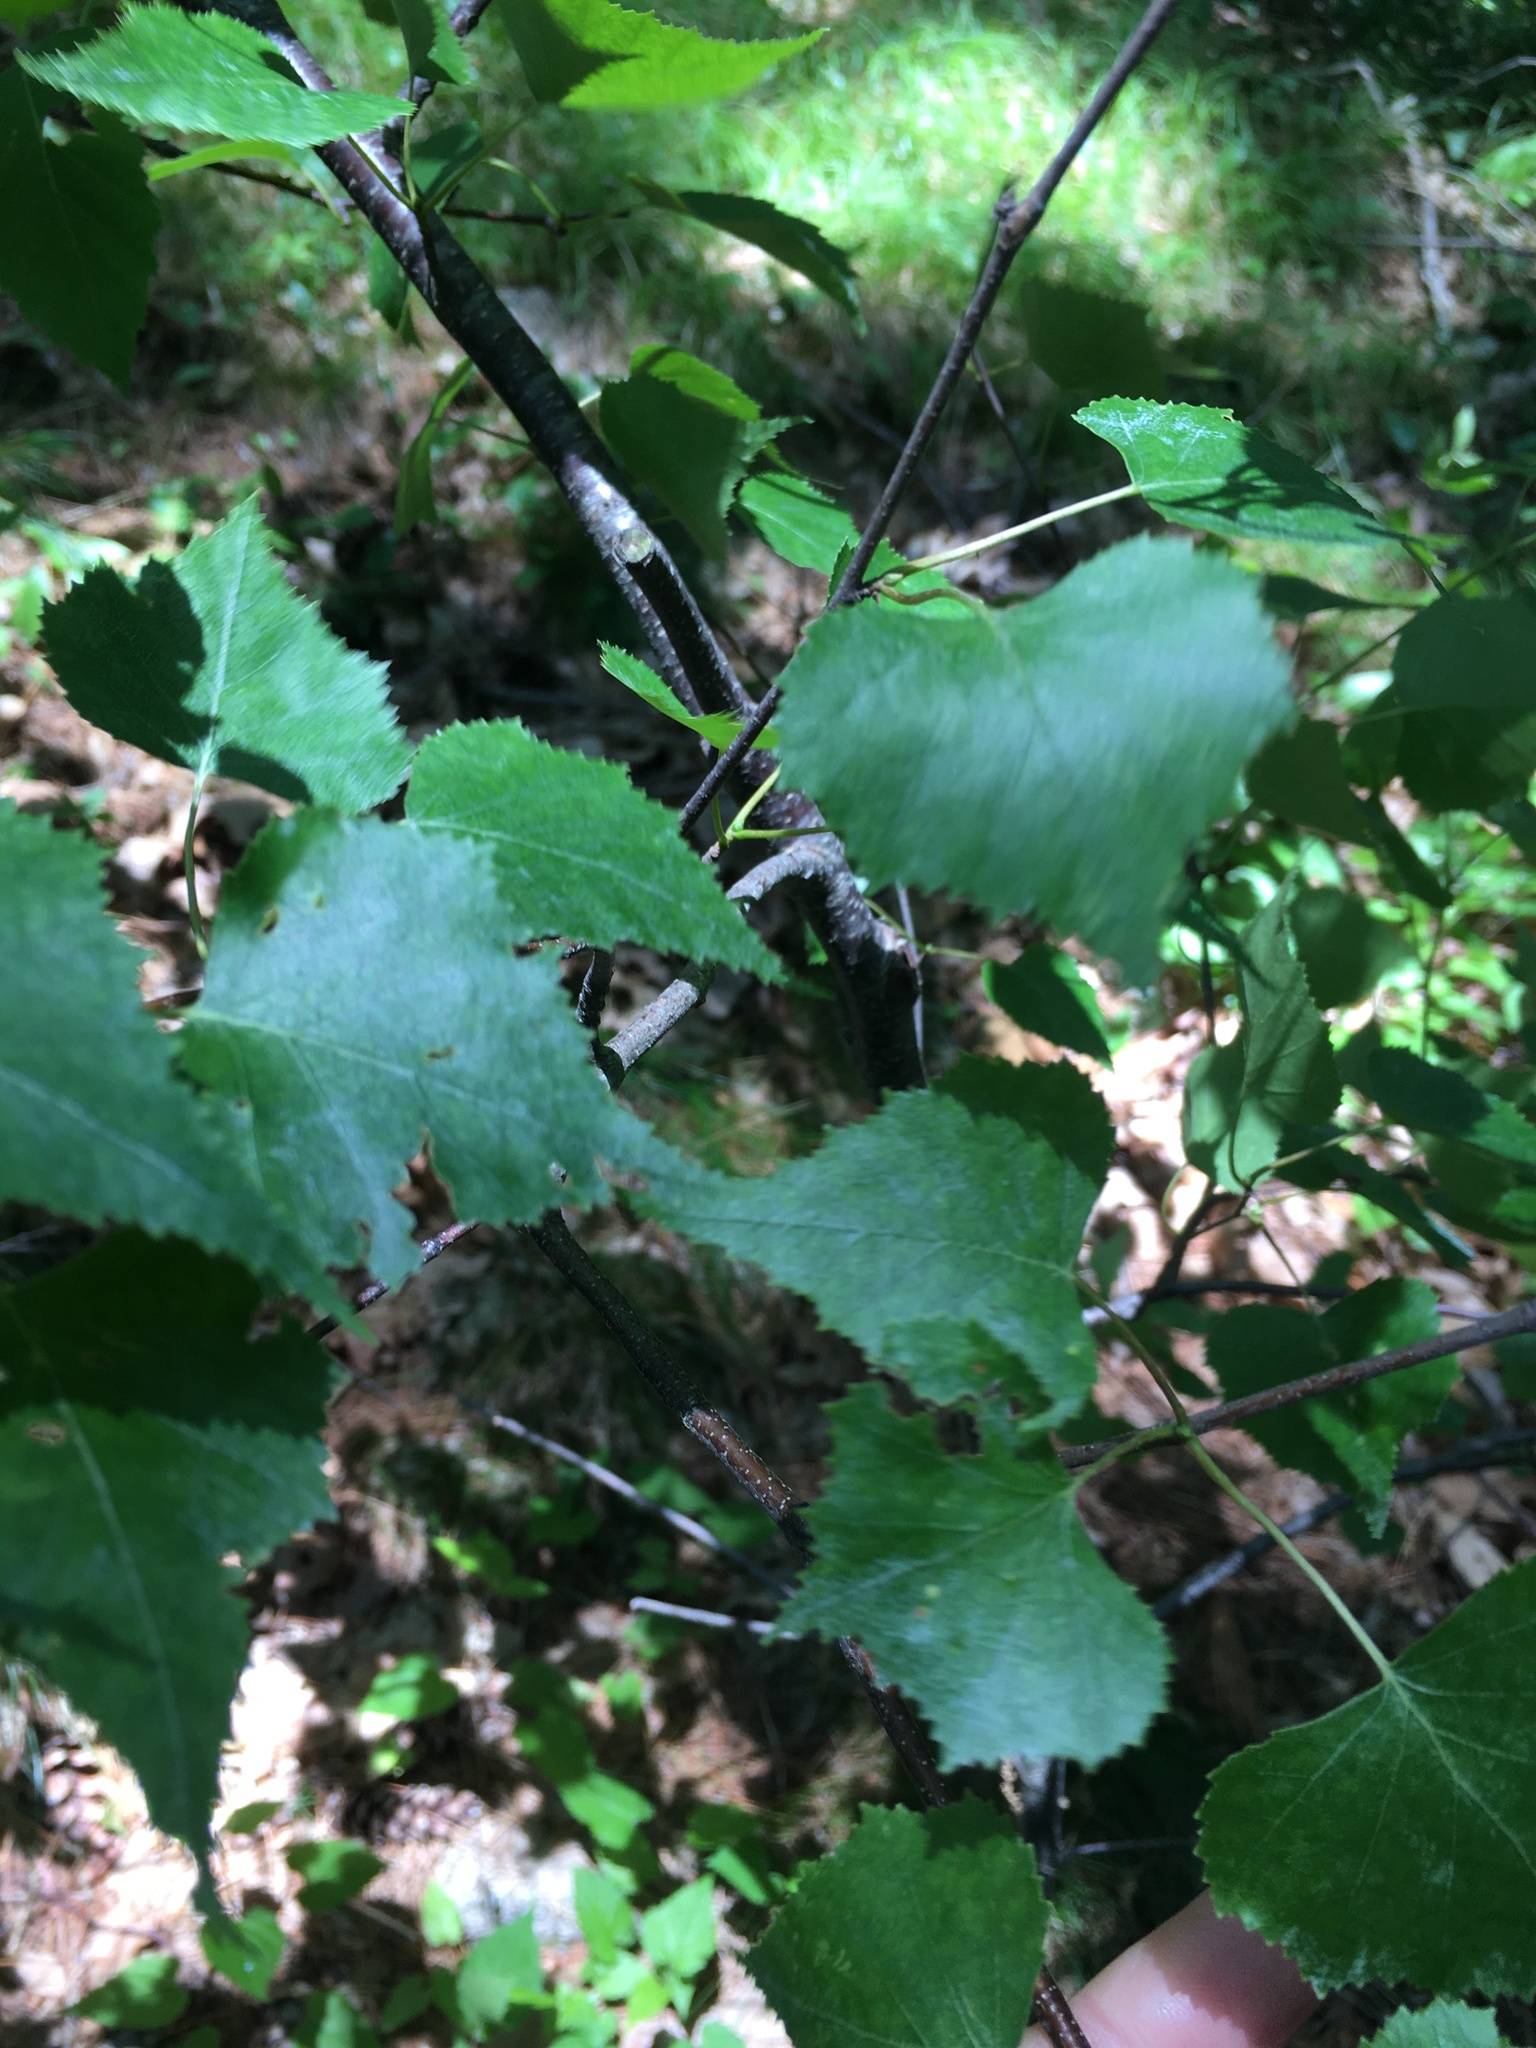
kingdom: Plantae
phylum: Tracheophyta
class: Magnoliopsida
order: Fagales
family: Betulaceae
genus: Betula
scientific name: Betula populifolia
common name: Fire birch
